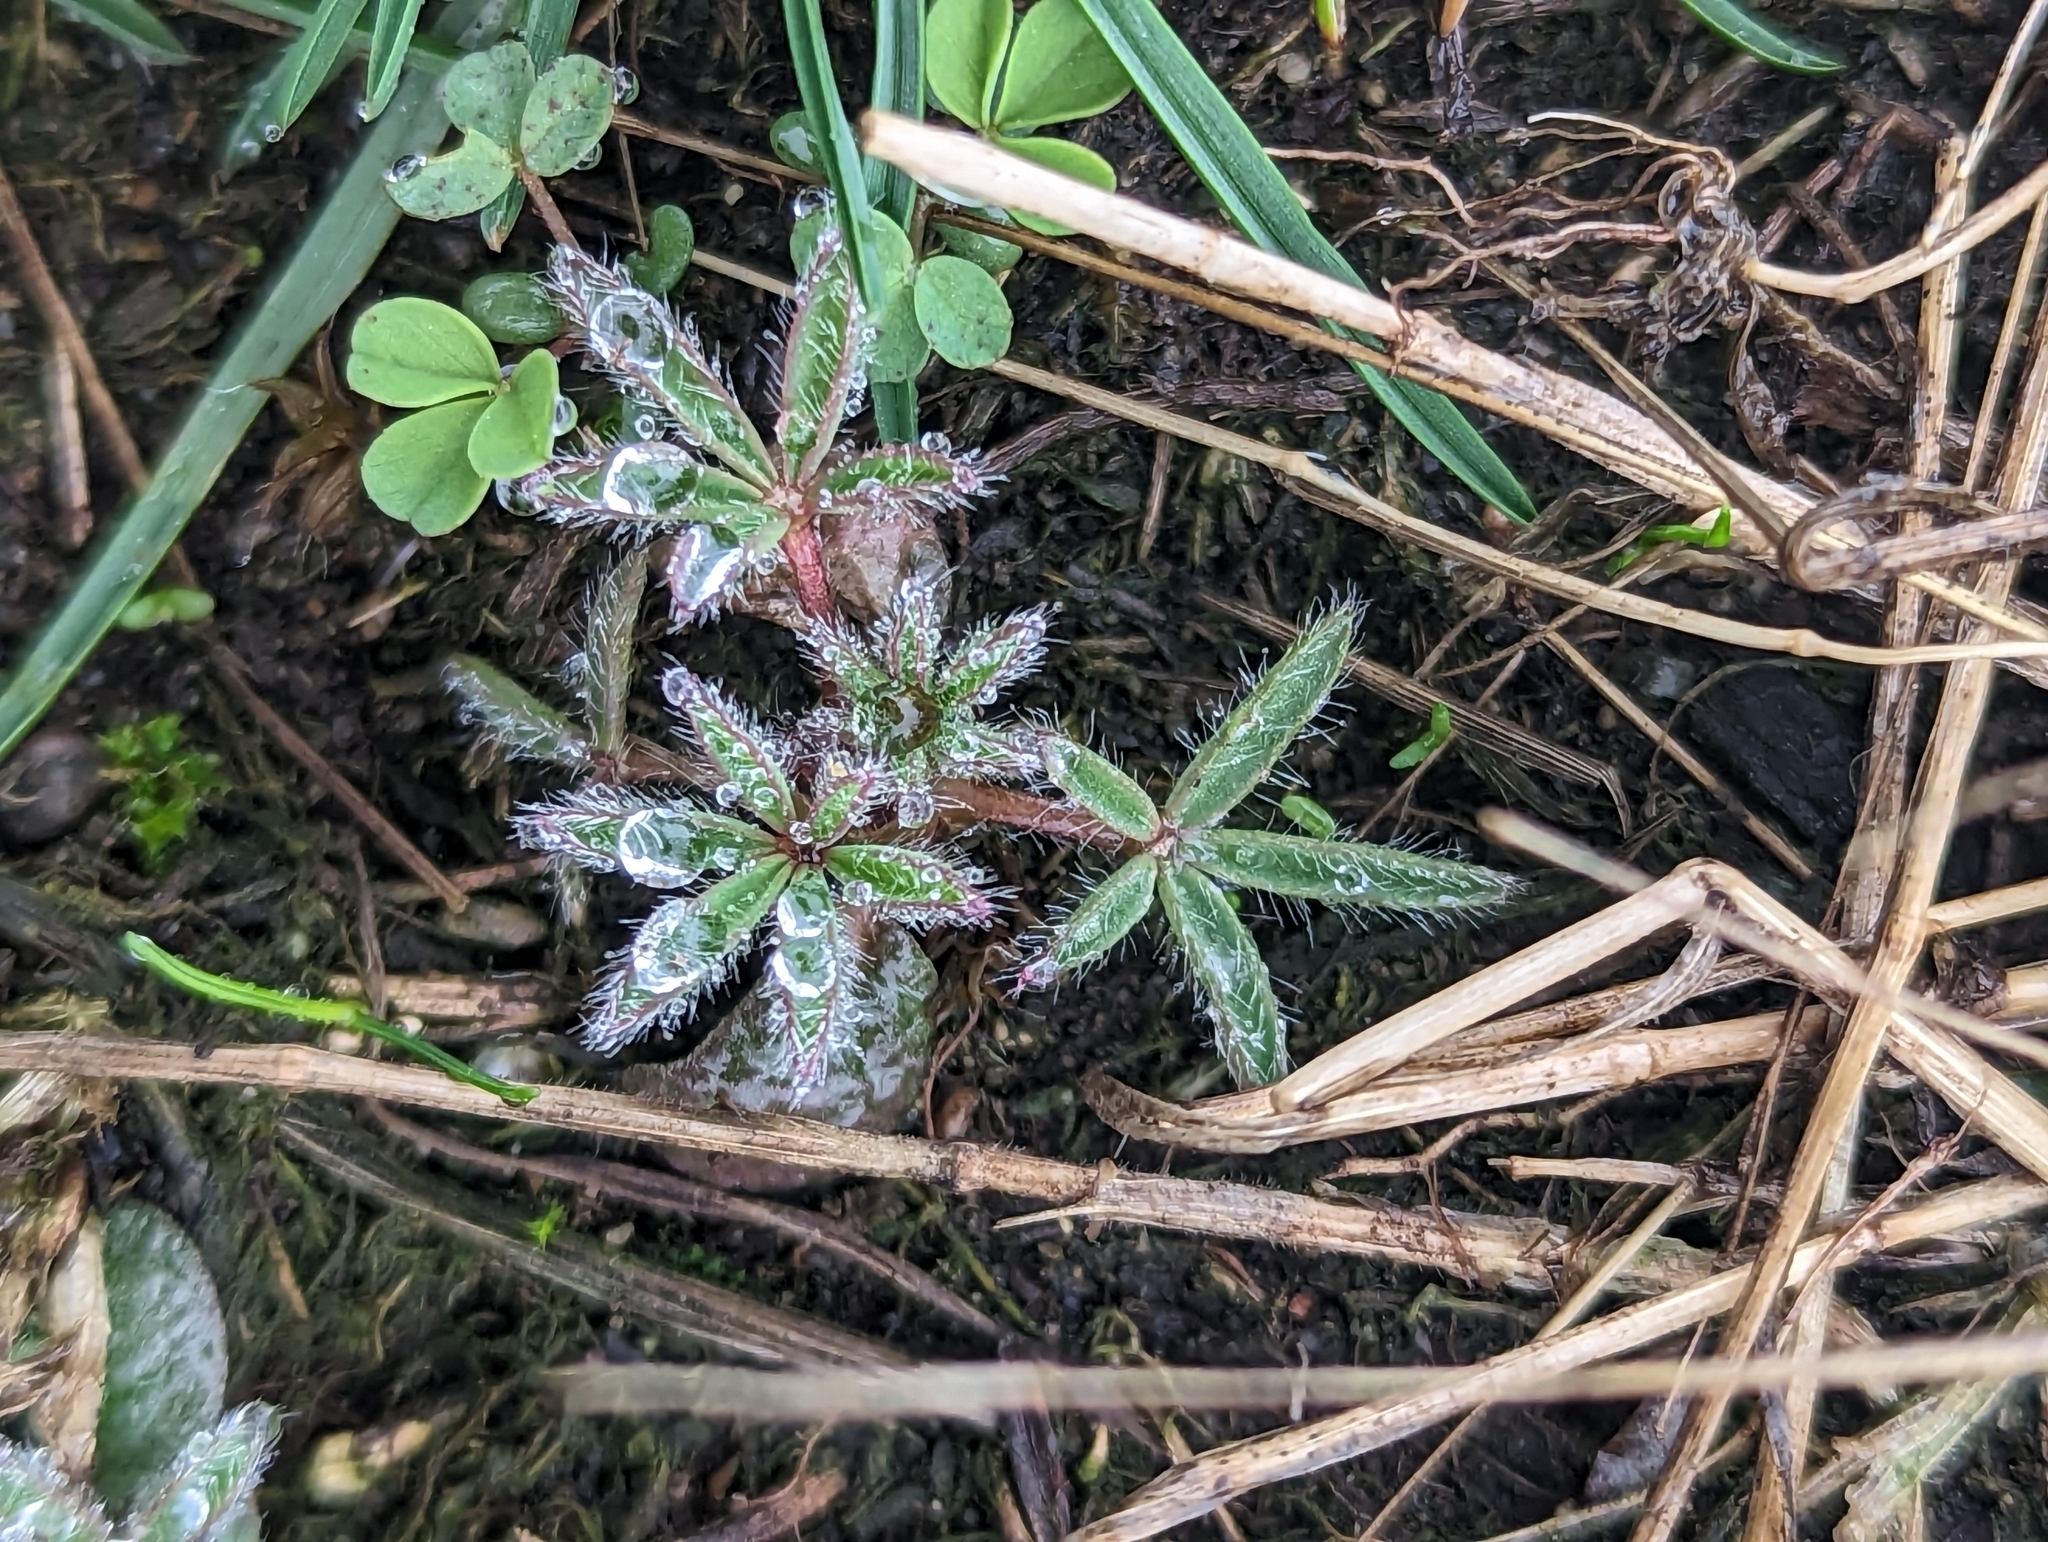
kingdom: Plantae
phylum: Tracheophyta
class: Magnoliopsida
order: Fabales
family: Fabaceae
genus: Lupinus
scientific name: Lupinus bicolor
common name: Miniature lupine
